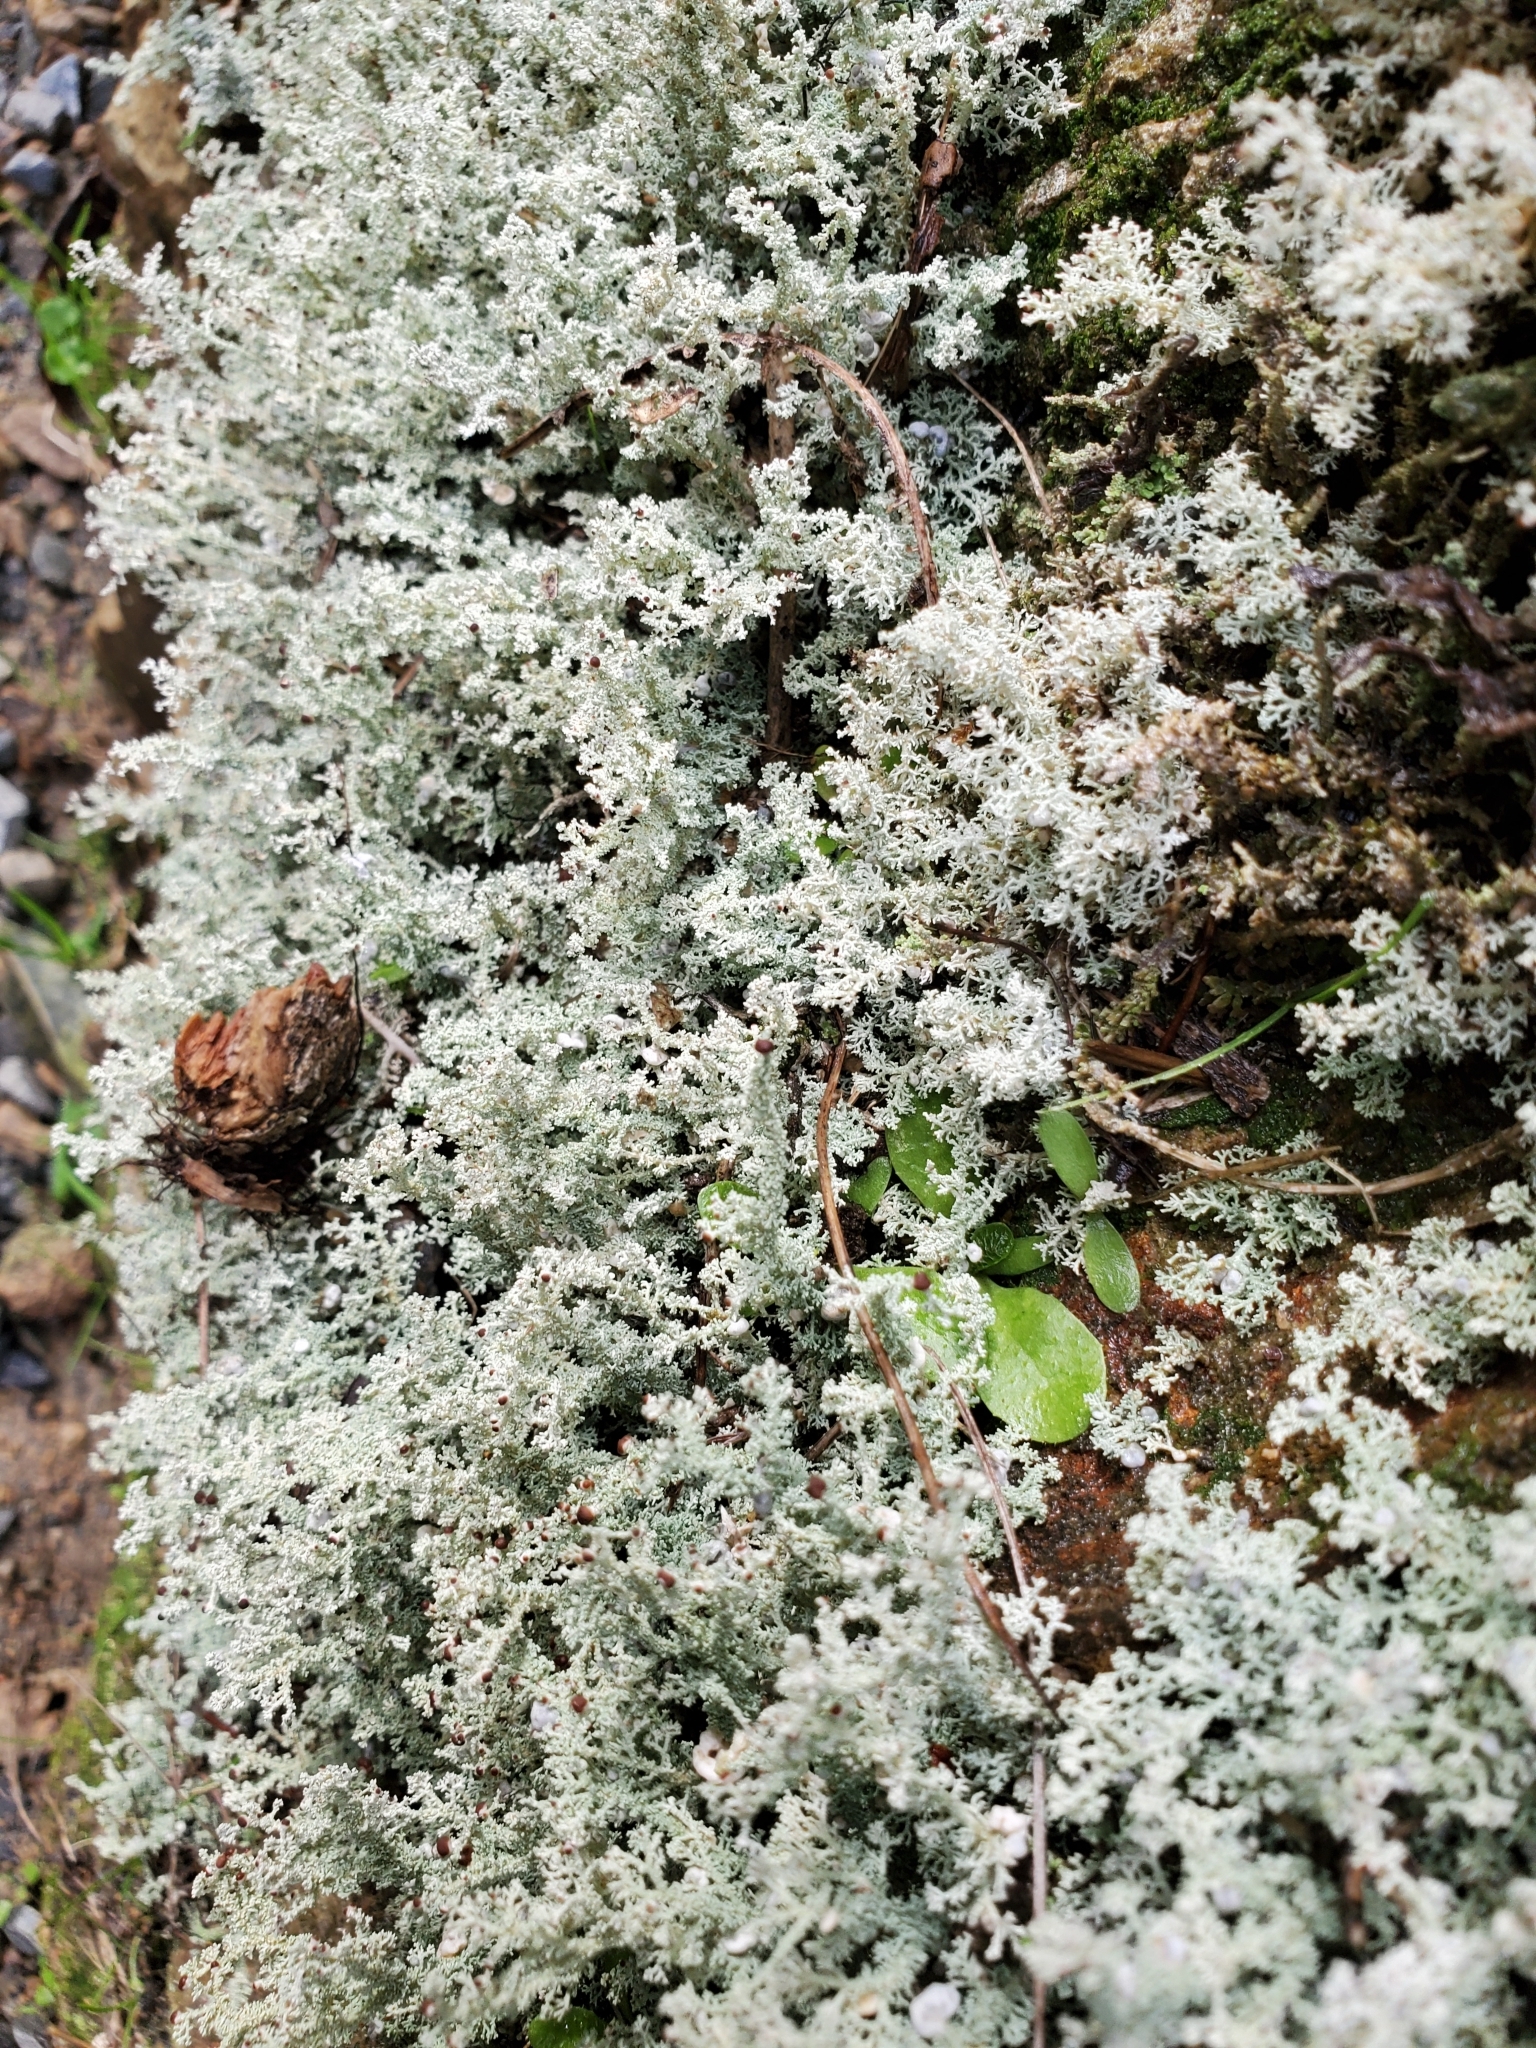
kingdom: Fungi
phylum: Ascomycota
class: Lecanoromycetes
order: Lecanorales
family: Stereocaulaceae
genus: Stereocaulon
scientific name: Stereocaulon ramulosum
